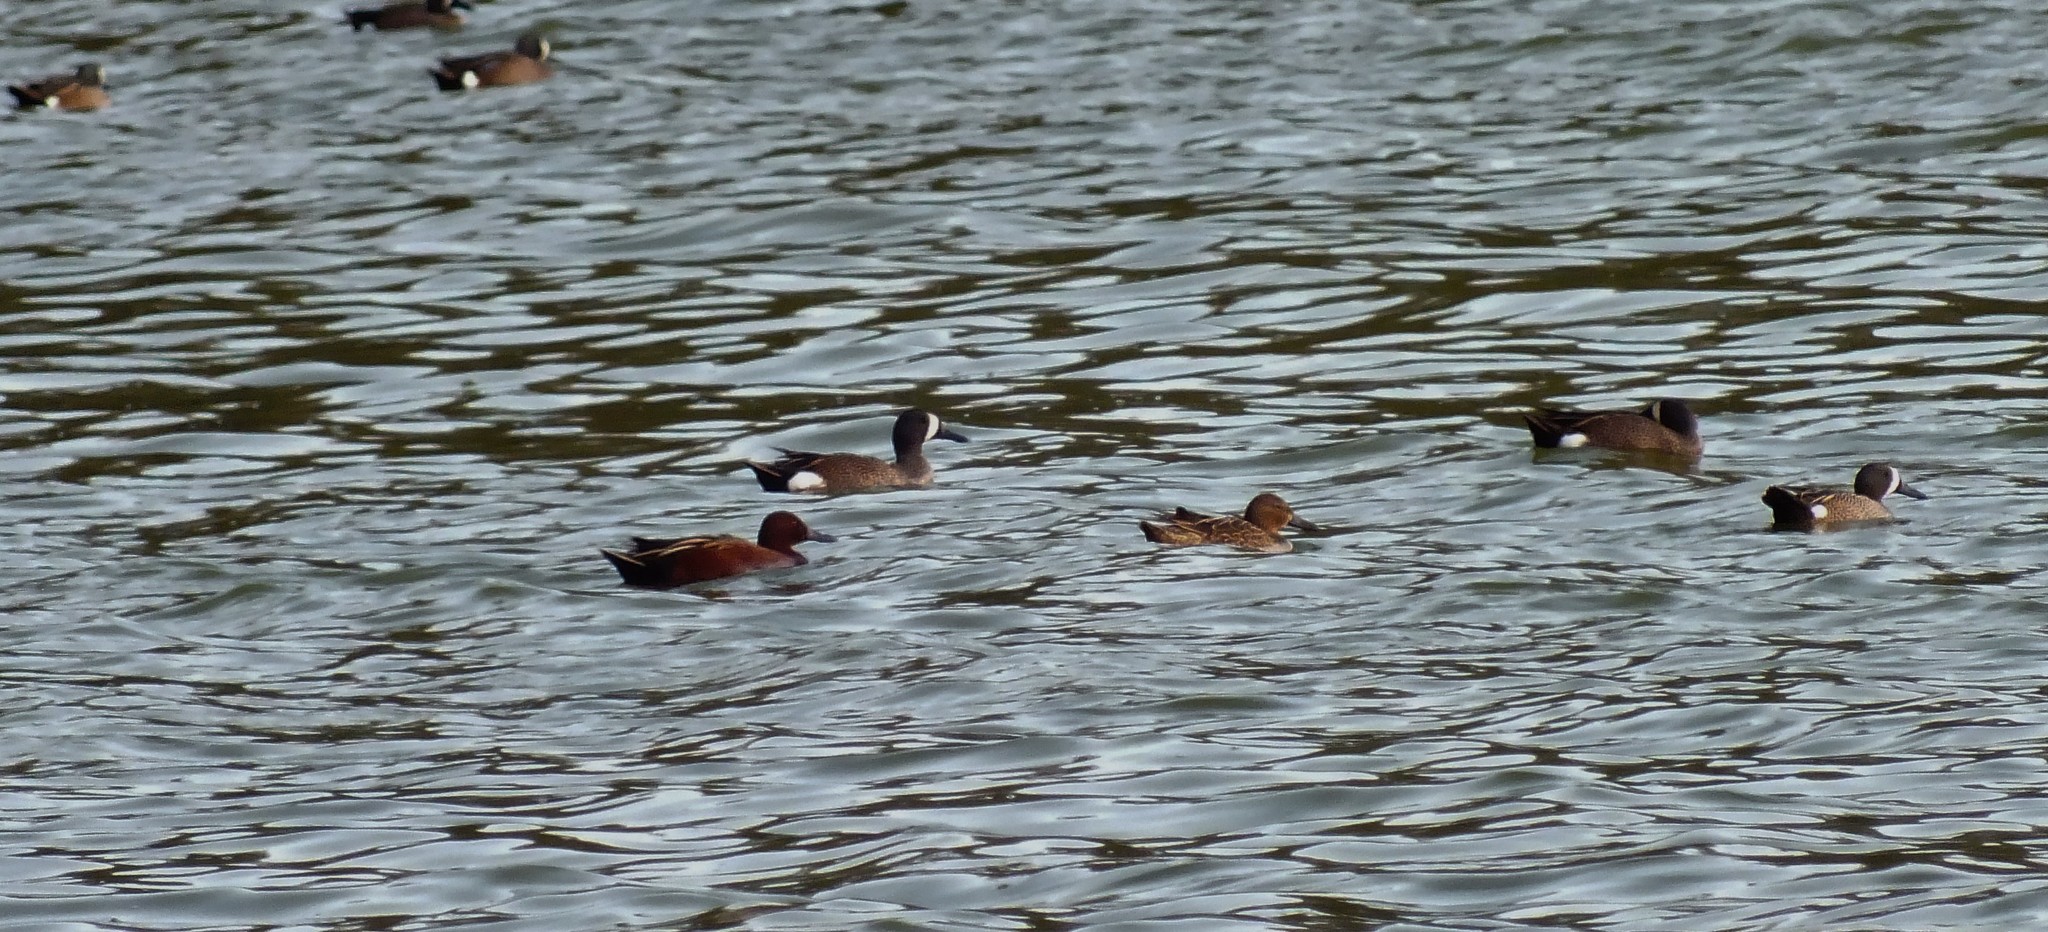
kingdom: Animalia
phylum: Chordata
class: Aves
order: Anseriformes
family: Anatidae
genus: Spatula
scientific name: Spatula cyanoptera
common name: Cinnamon teal
